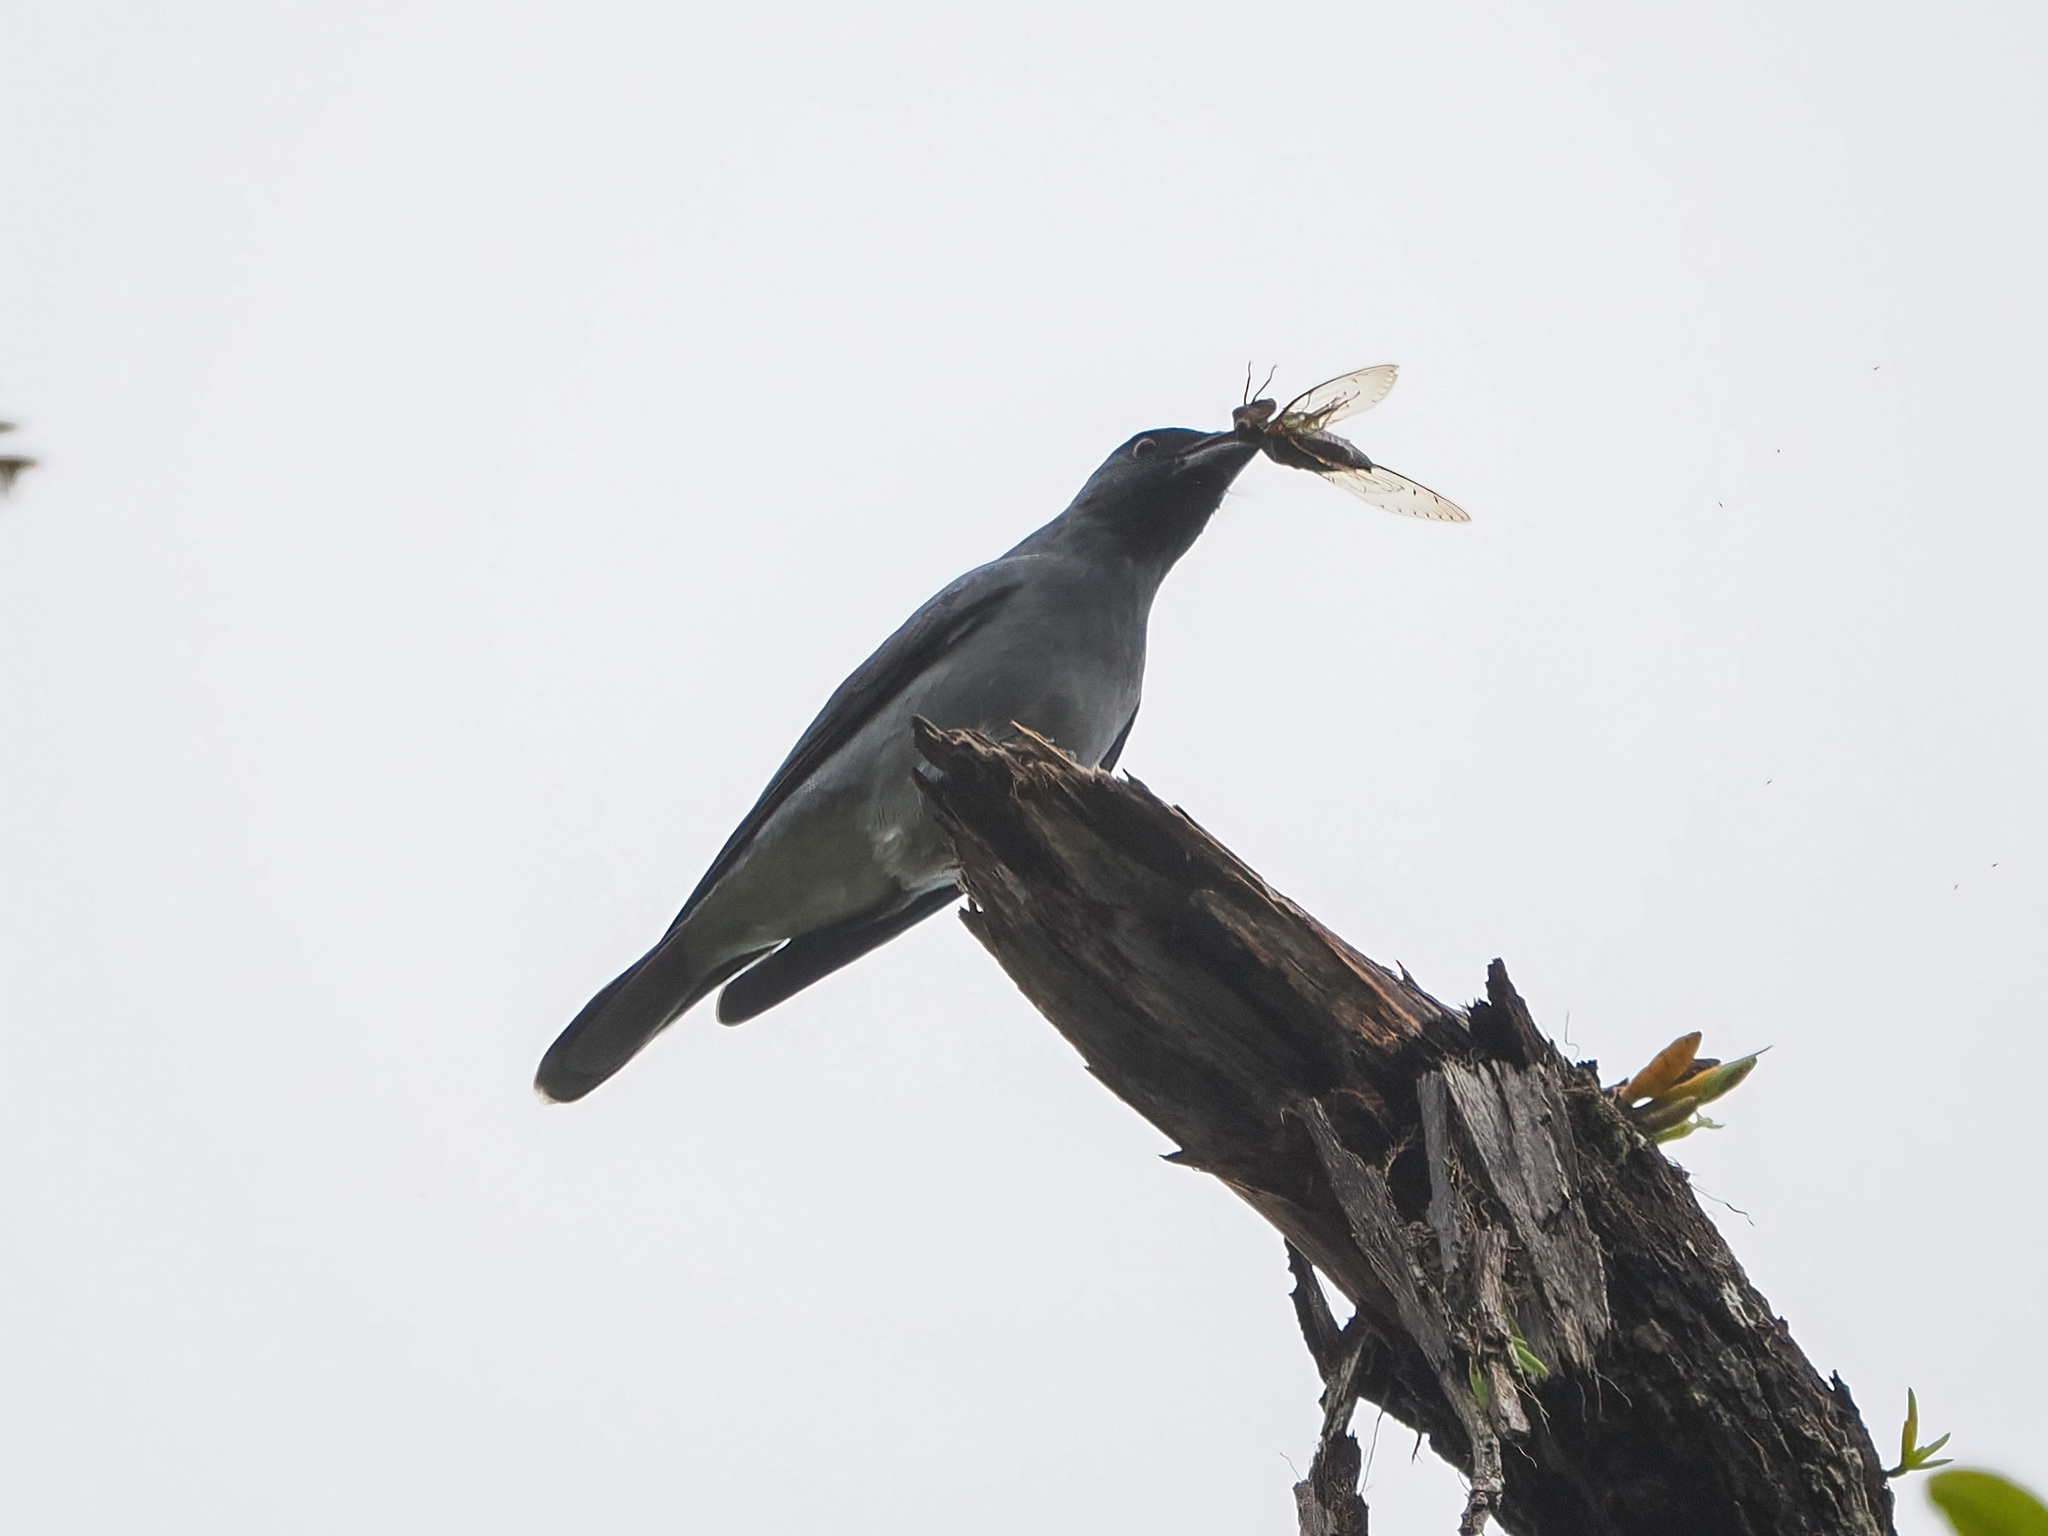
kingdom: Animalia
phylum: Chordata
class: Aves
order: Passeriformes
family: Campephagidae
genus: Coracina
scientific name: Coracina macei
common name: Large cuckooshrike
